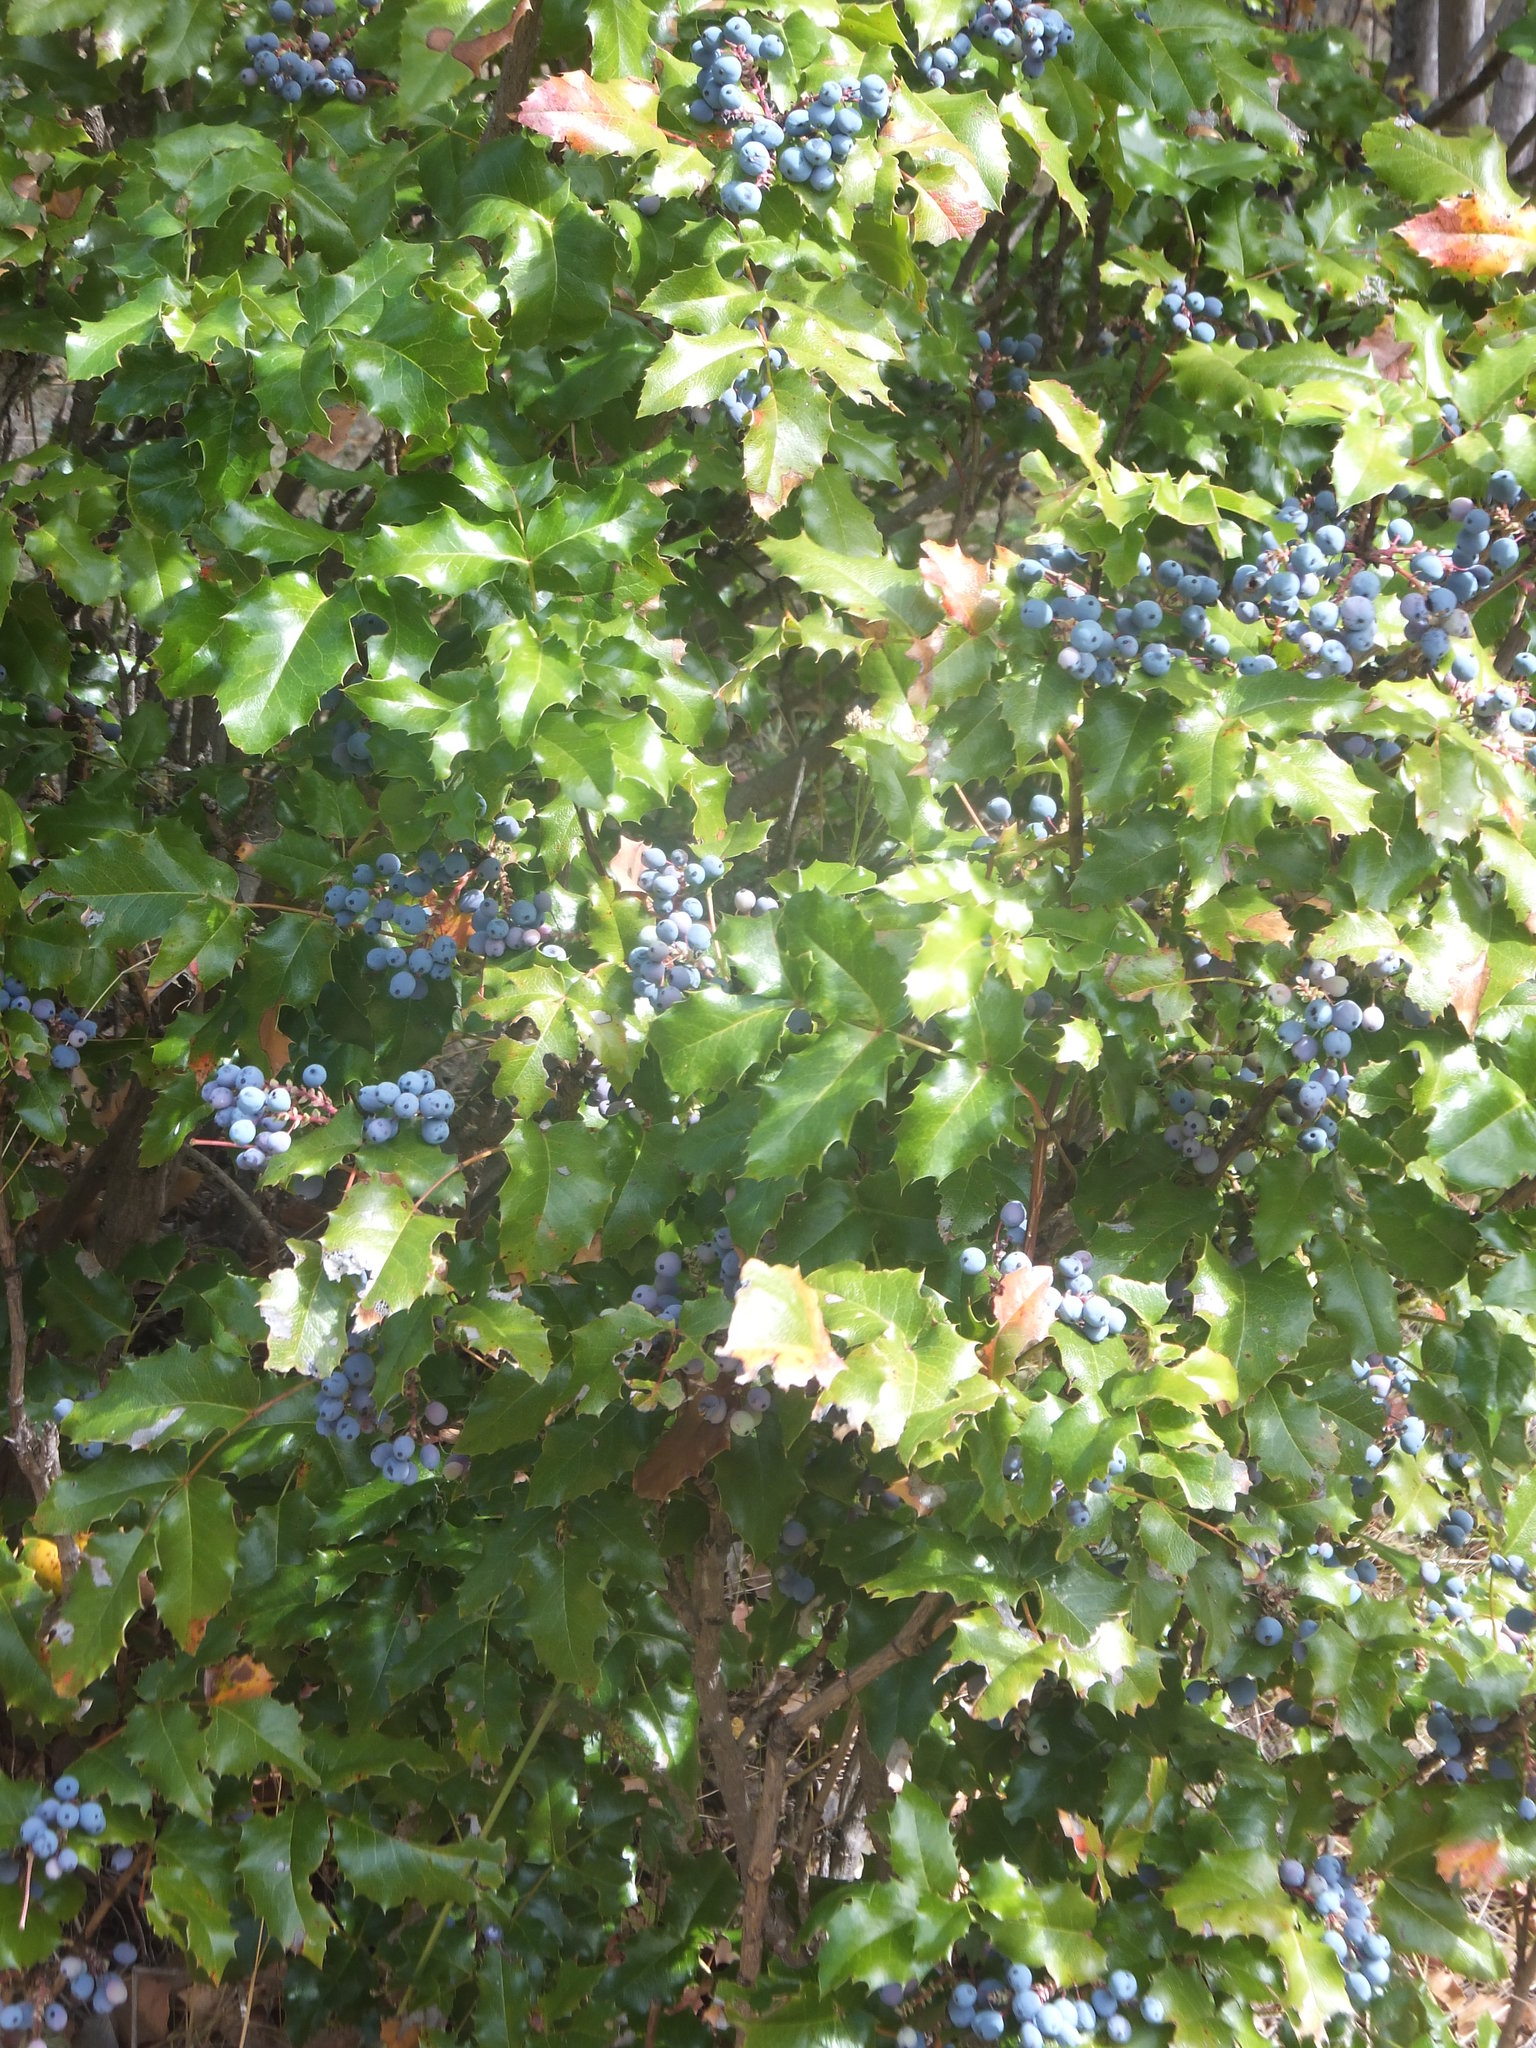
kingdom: Plantae
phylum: Tracheophyta
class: Magnoliopsida
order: Ranunculales
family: Berberidaceae
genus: Mahonia
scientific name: Mahonia aquifolium
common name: Oregon-grape
